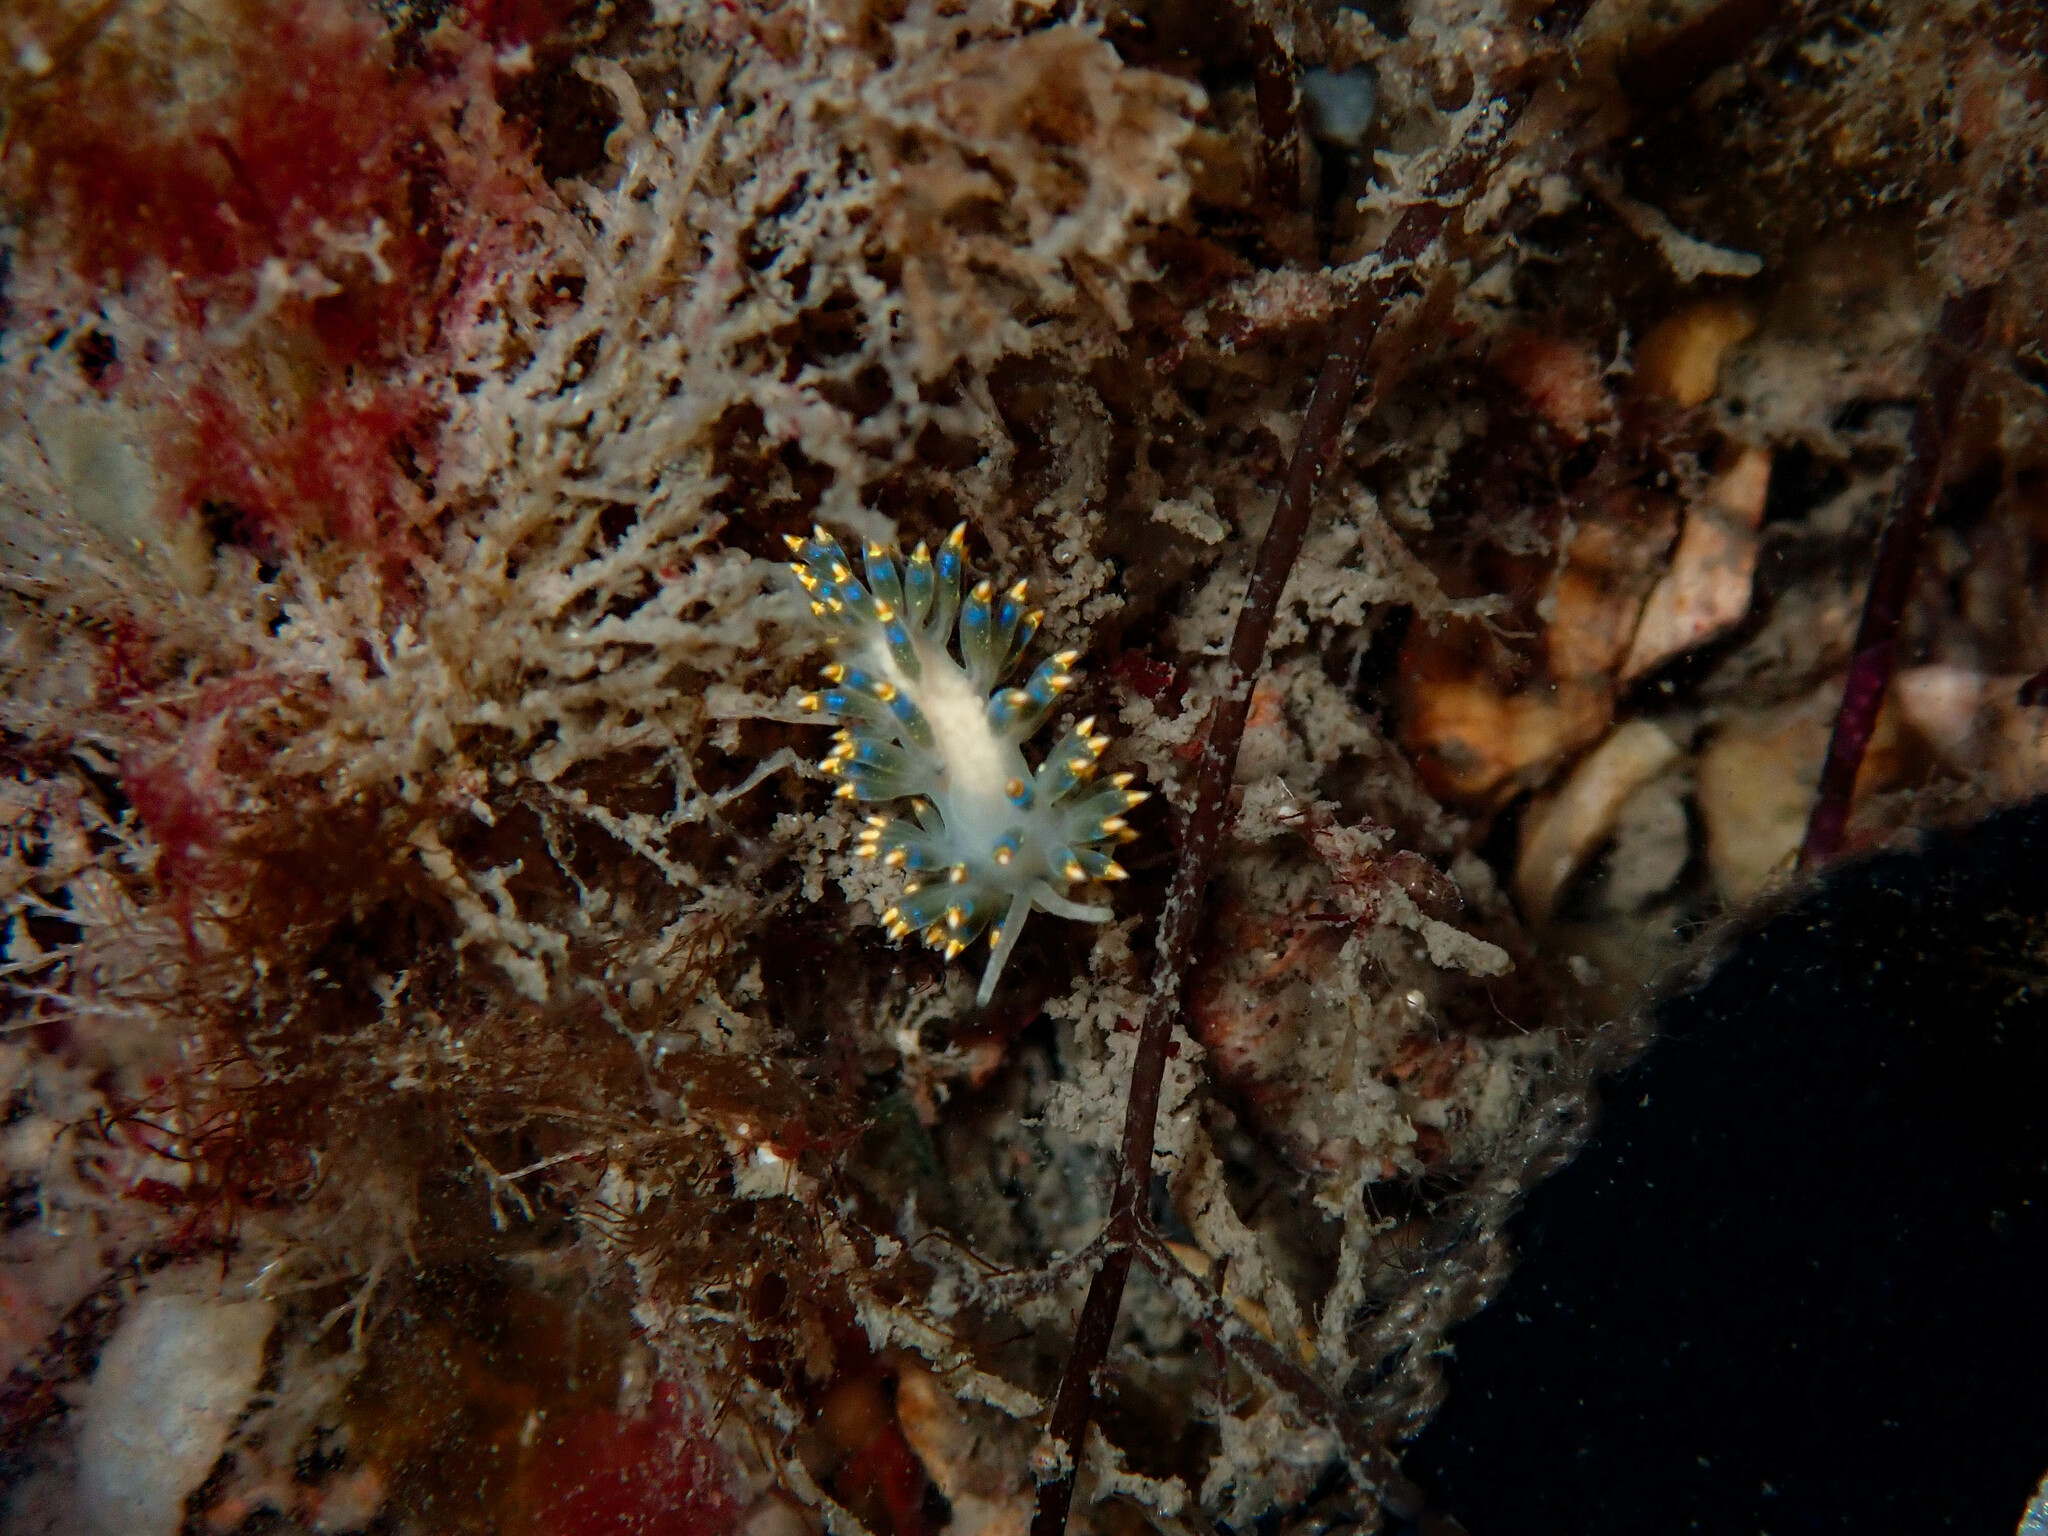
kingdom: Animalia
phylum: Mollusca
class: Gastropoda
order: Nudibranchia
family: Trinchesiidae
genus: Trinchesia
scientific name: Trinchesia cuanensis
